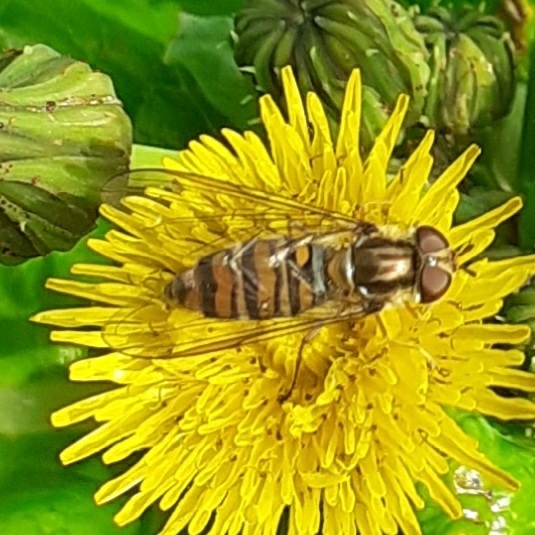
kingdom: Animalia
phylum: Arthropoda
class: Insecta
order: Diptera
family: Syrphidae
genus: Episyrphus
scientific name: Episyrphus balteatus
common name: Marmalade hoverfly
